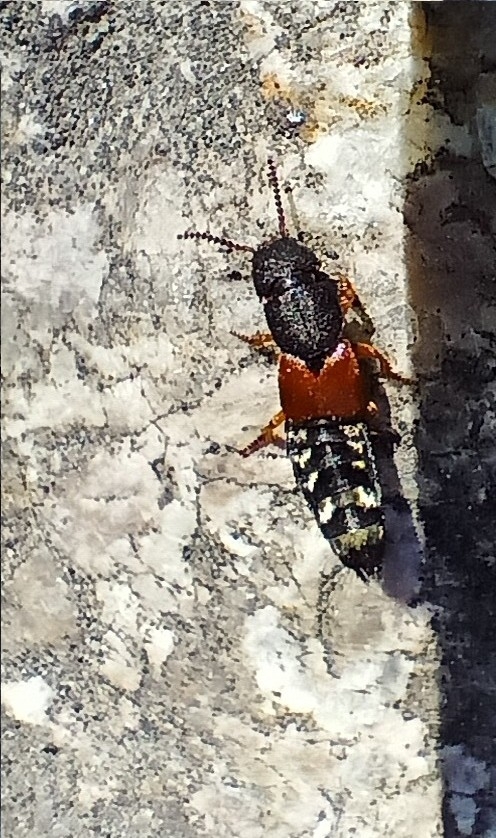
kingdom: Animalia
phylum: Arthropoda
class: Insecta
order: Coleoptera
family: Staphylinidae
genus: Platydracus
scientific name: Platydracus stercorarius
